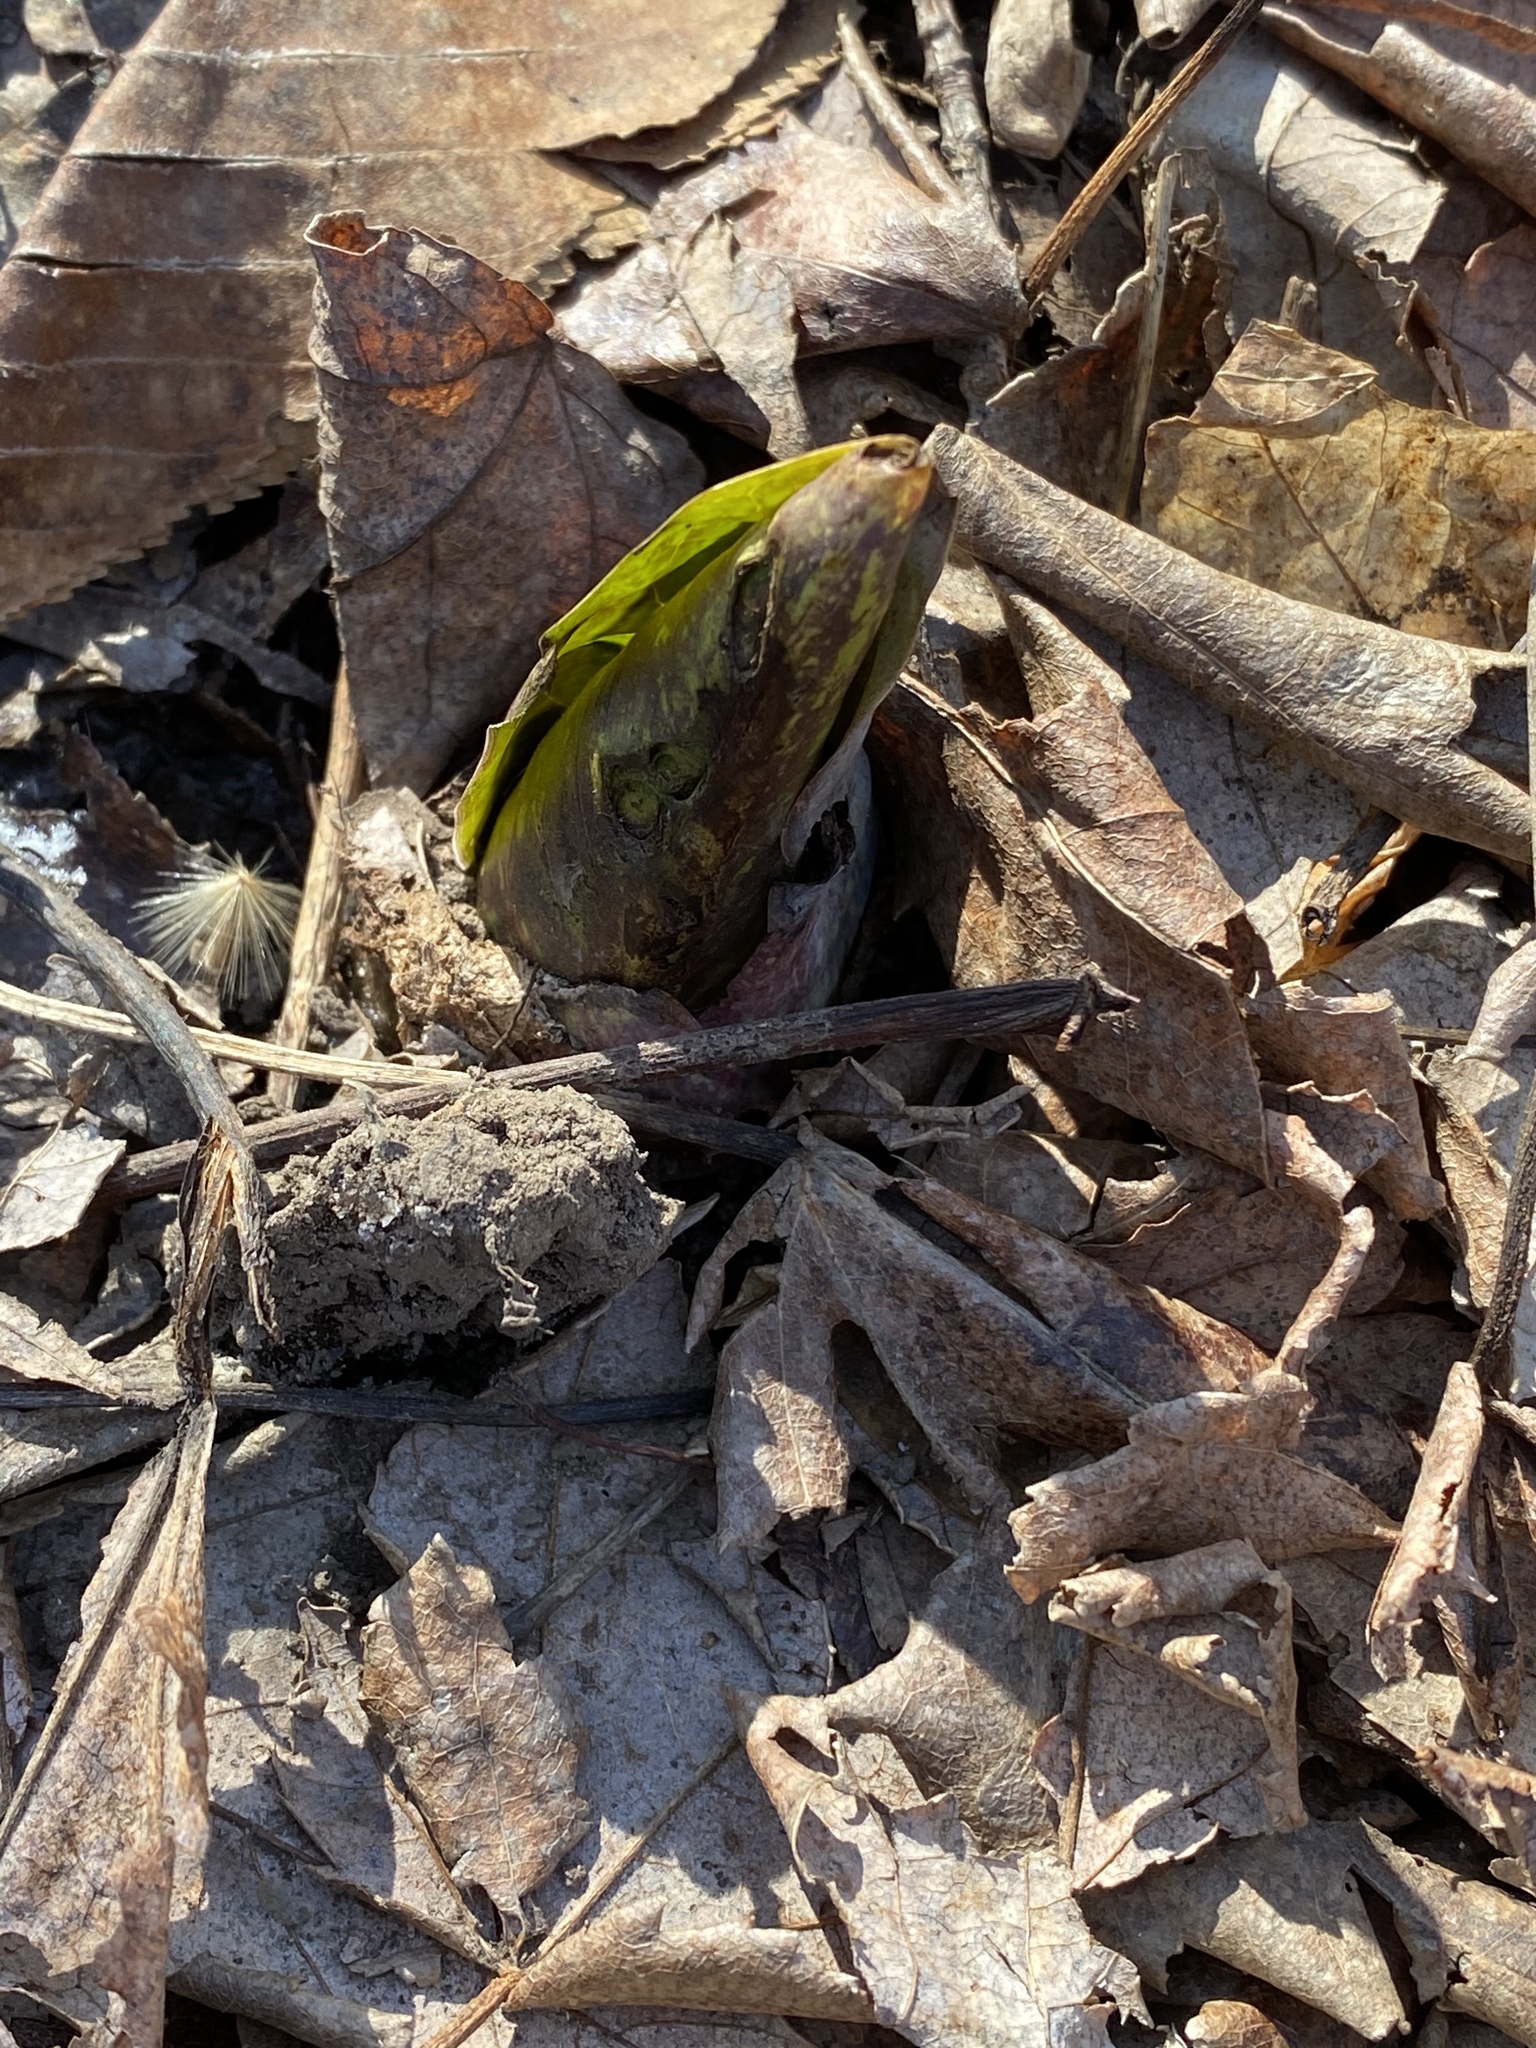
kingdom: Plantae
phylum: Tracheophyta
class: Liliopsida
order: Alismatales
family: Araceae
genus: Symplocarpus
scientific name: Symplocarpus foetidus
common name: Eastern skunk cabbage
